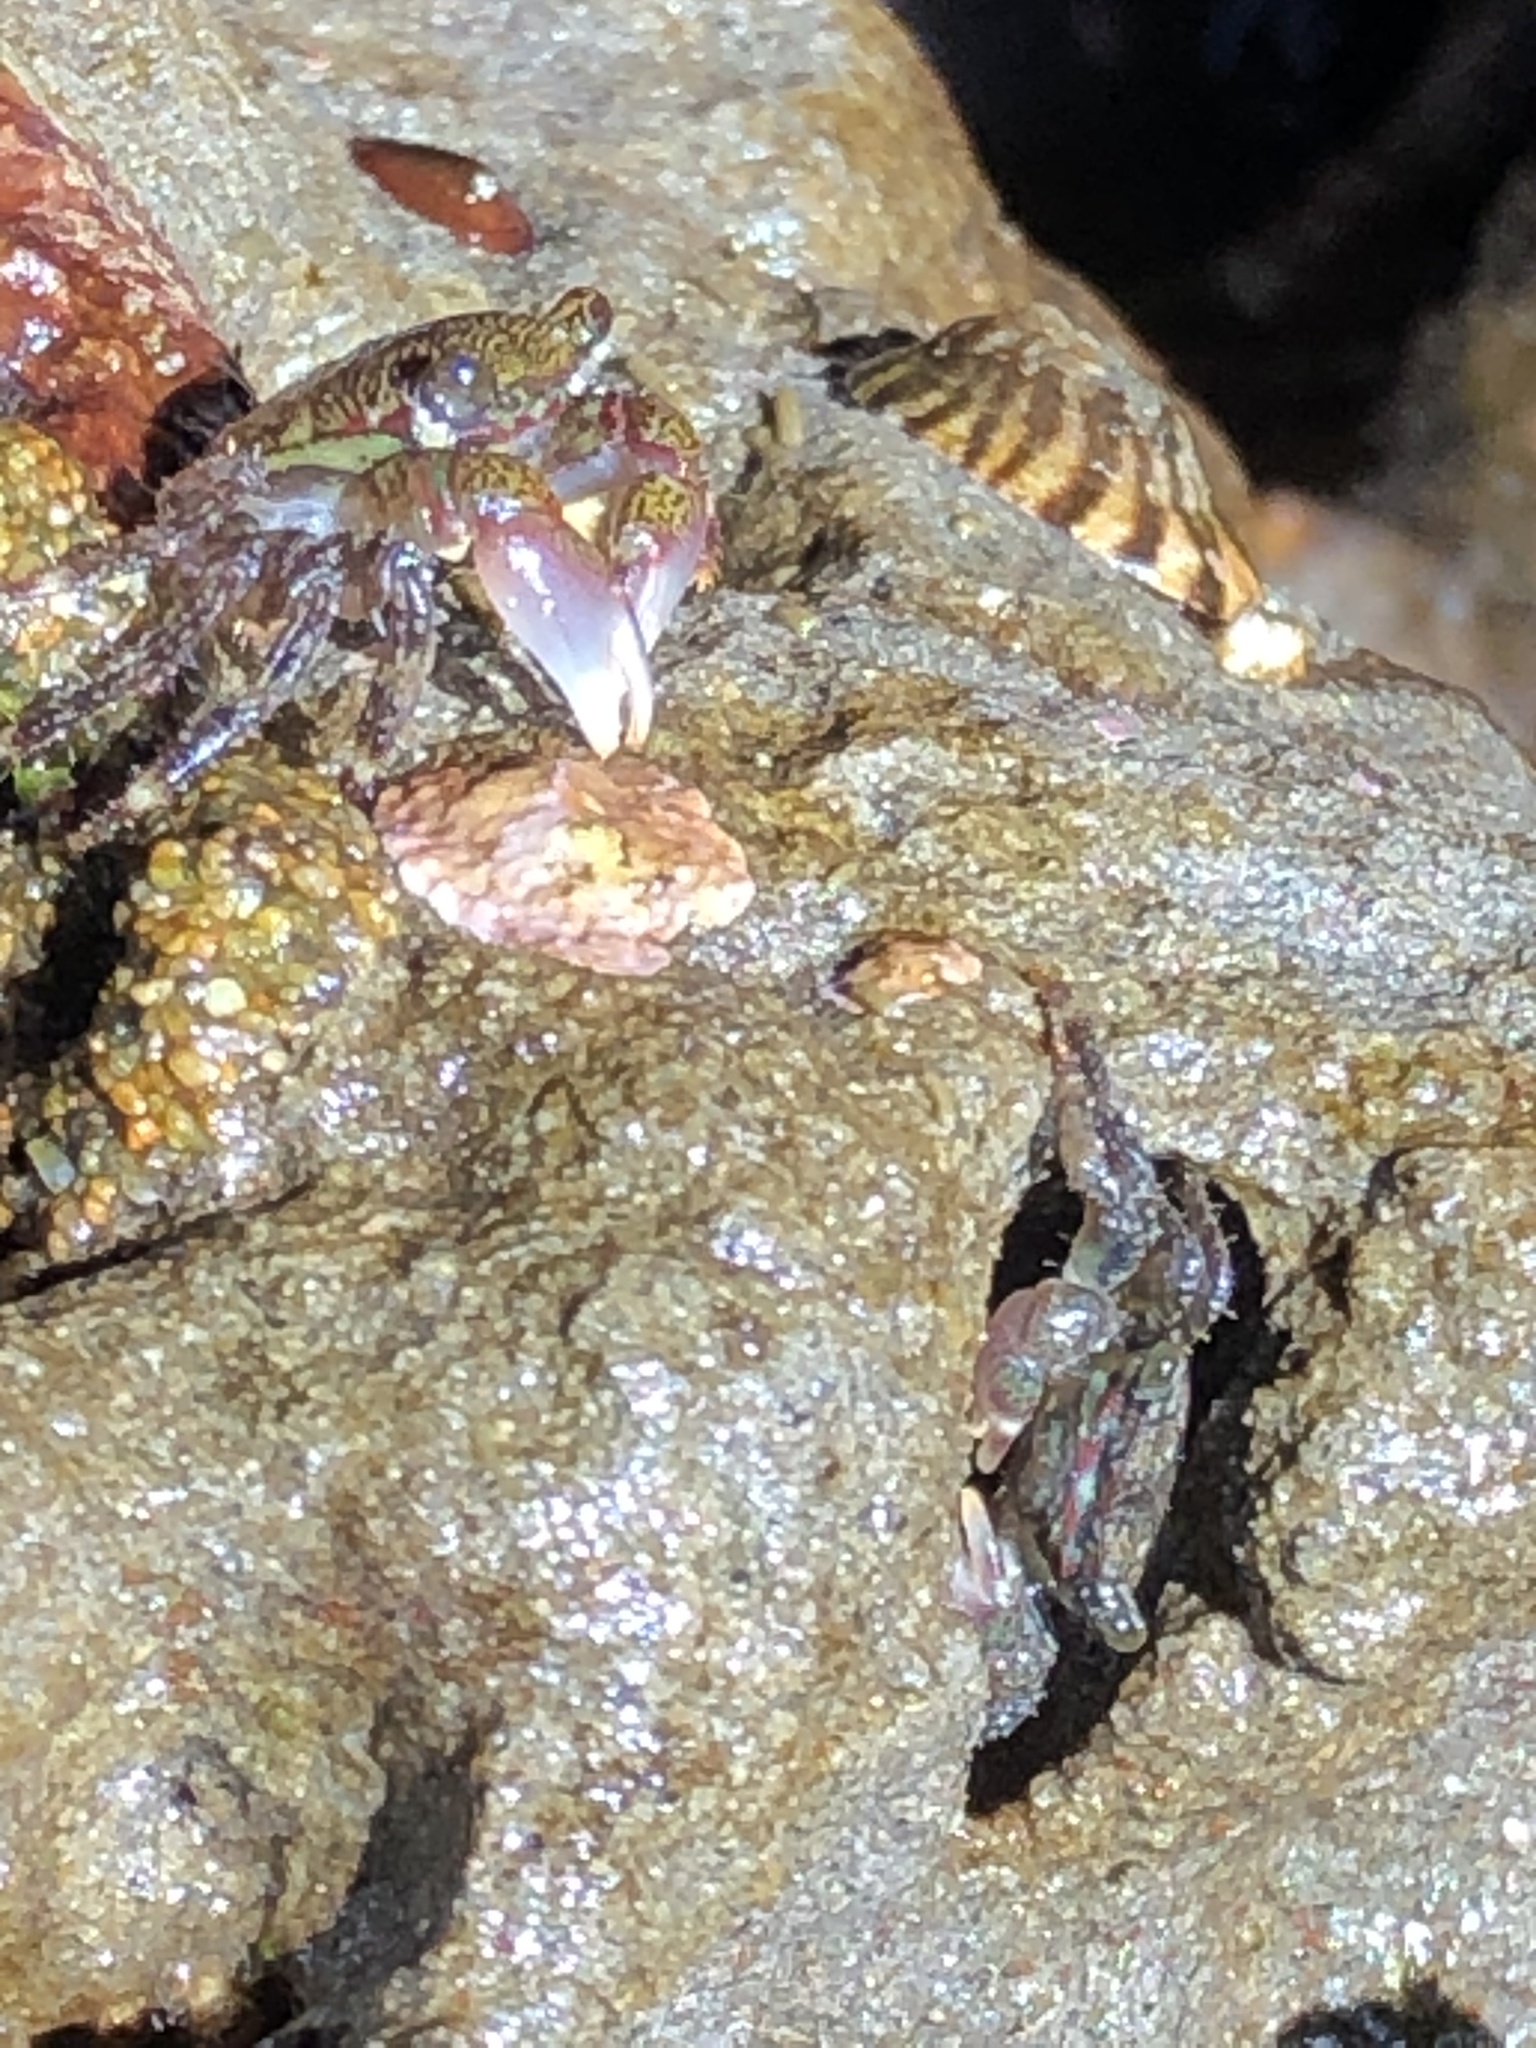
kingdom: Animalia
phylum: Arthropoda
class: Malacostraca
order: Decapoda
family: Grapsidae
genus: Pachygrapsus
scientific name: Pachygrapsus crassipes
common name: Striped shore crab
